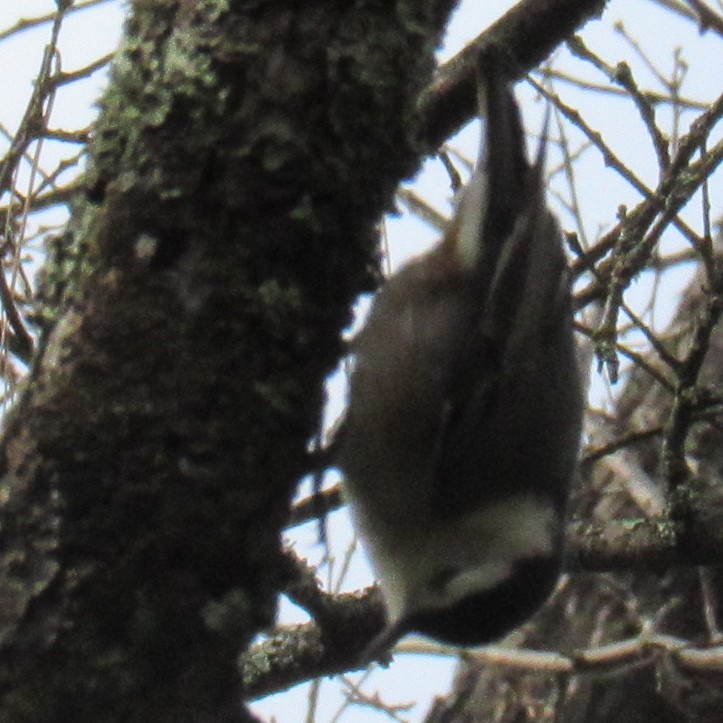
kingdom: Animalia
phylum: Chordata
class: Aves
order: Passeriformes
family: Sittidae
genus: Sitta
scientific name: Sitta carolinensis
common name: White-breasted nuthatch
